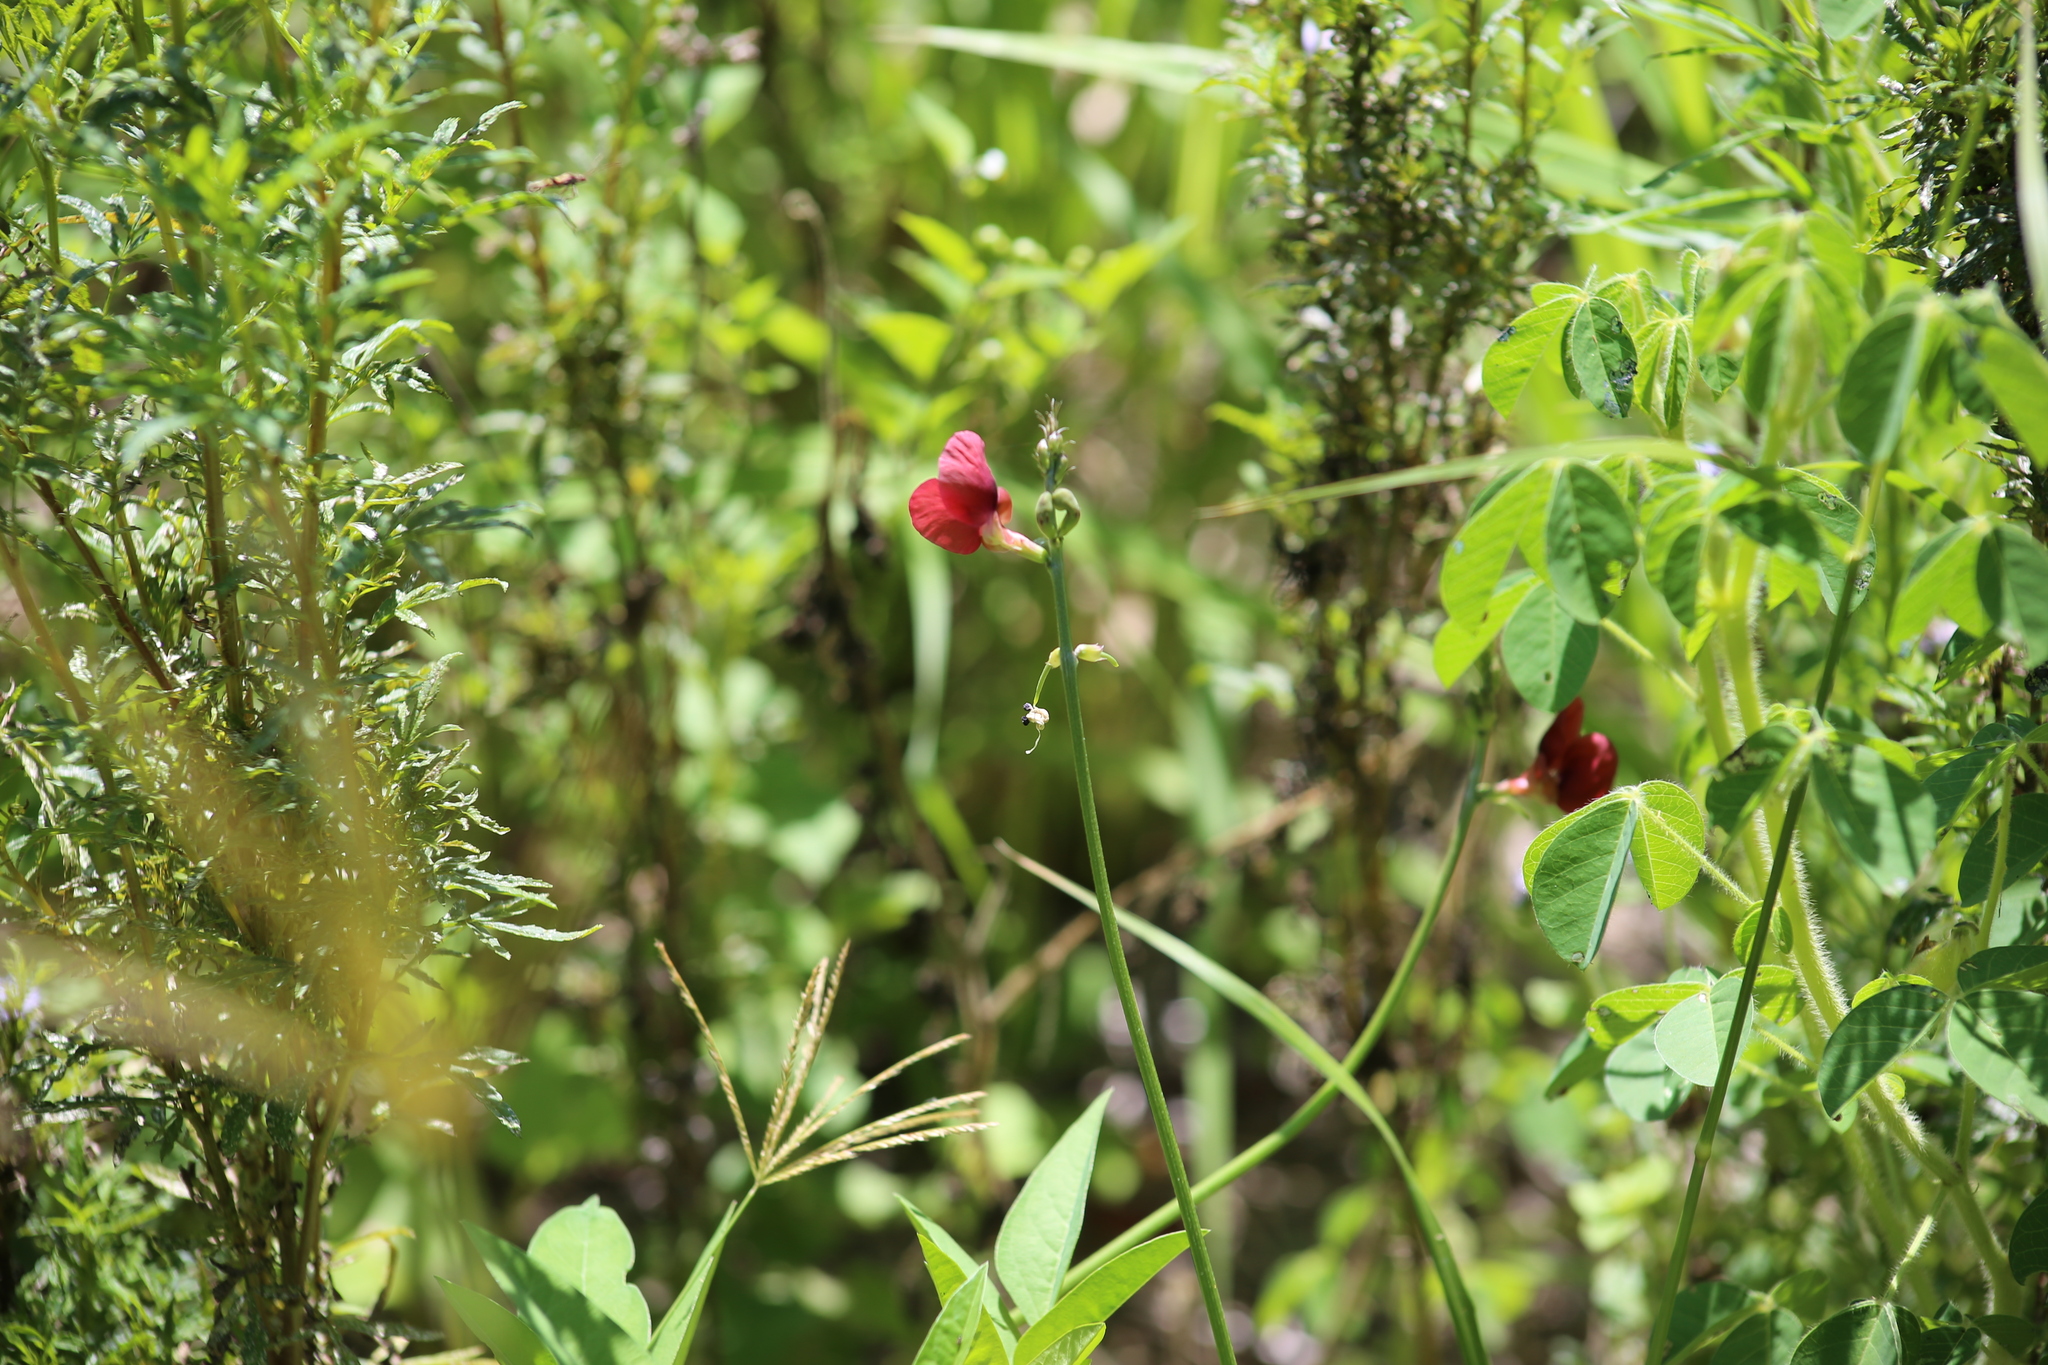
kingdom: Plantae
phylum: Tracheophyta
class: Magnoliopsida
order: Fabales
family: Fabaceae
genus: Macroptilium
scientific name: Macroptilium lathyroides
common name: Wild bushbean
